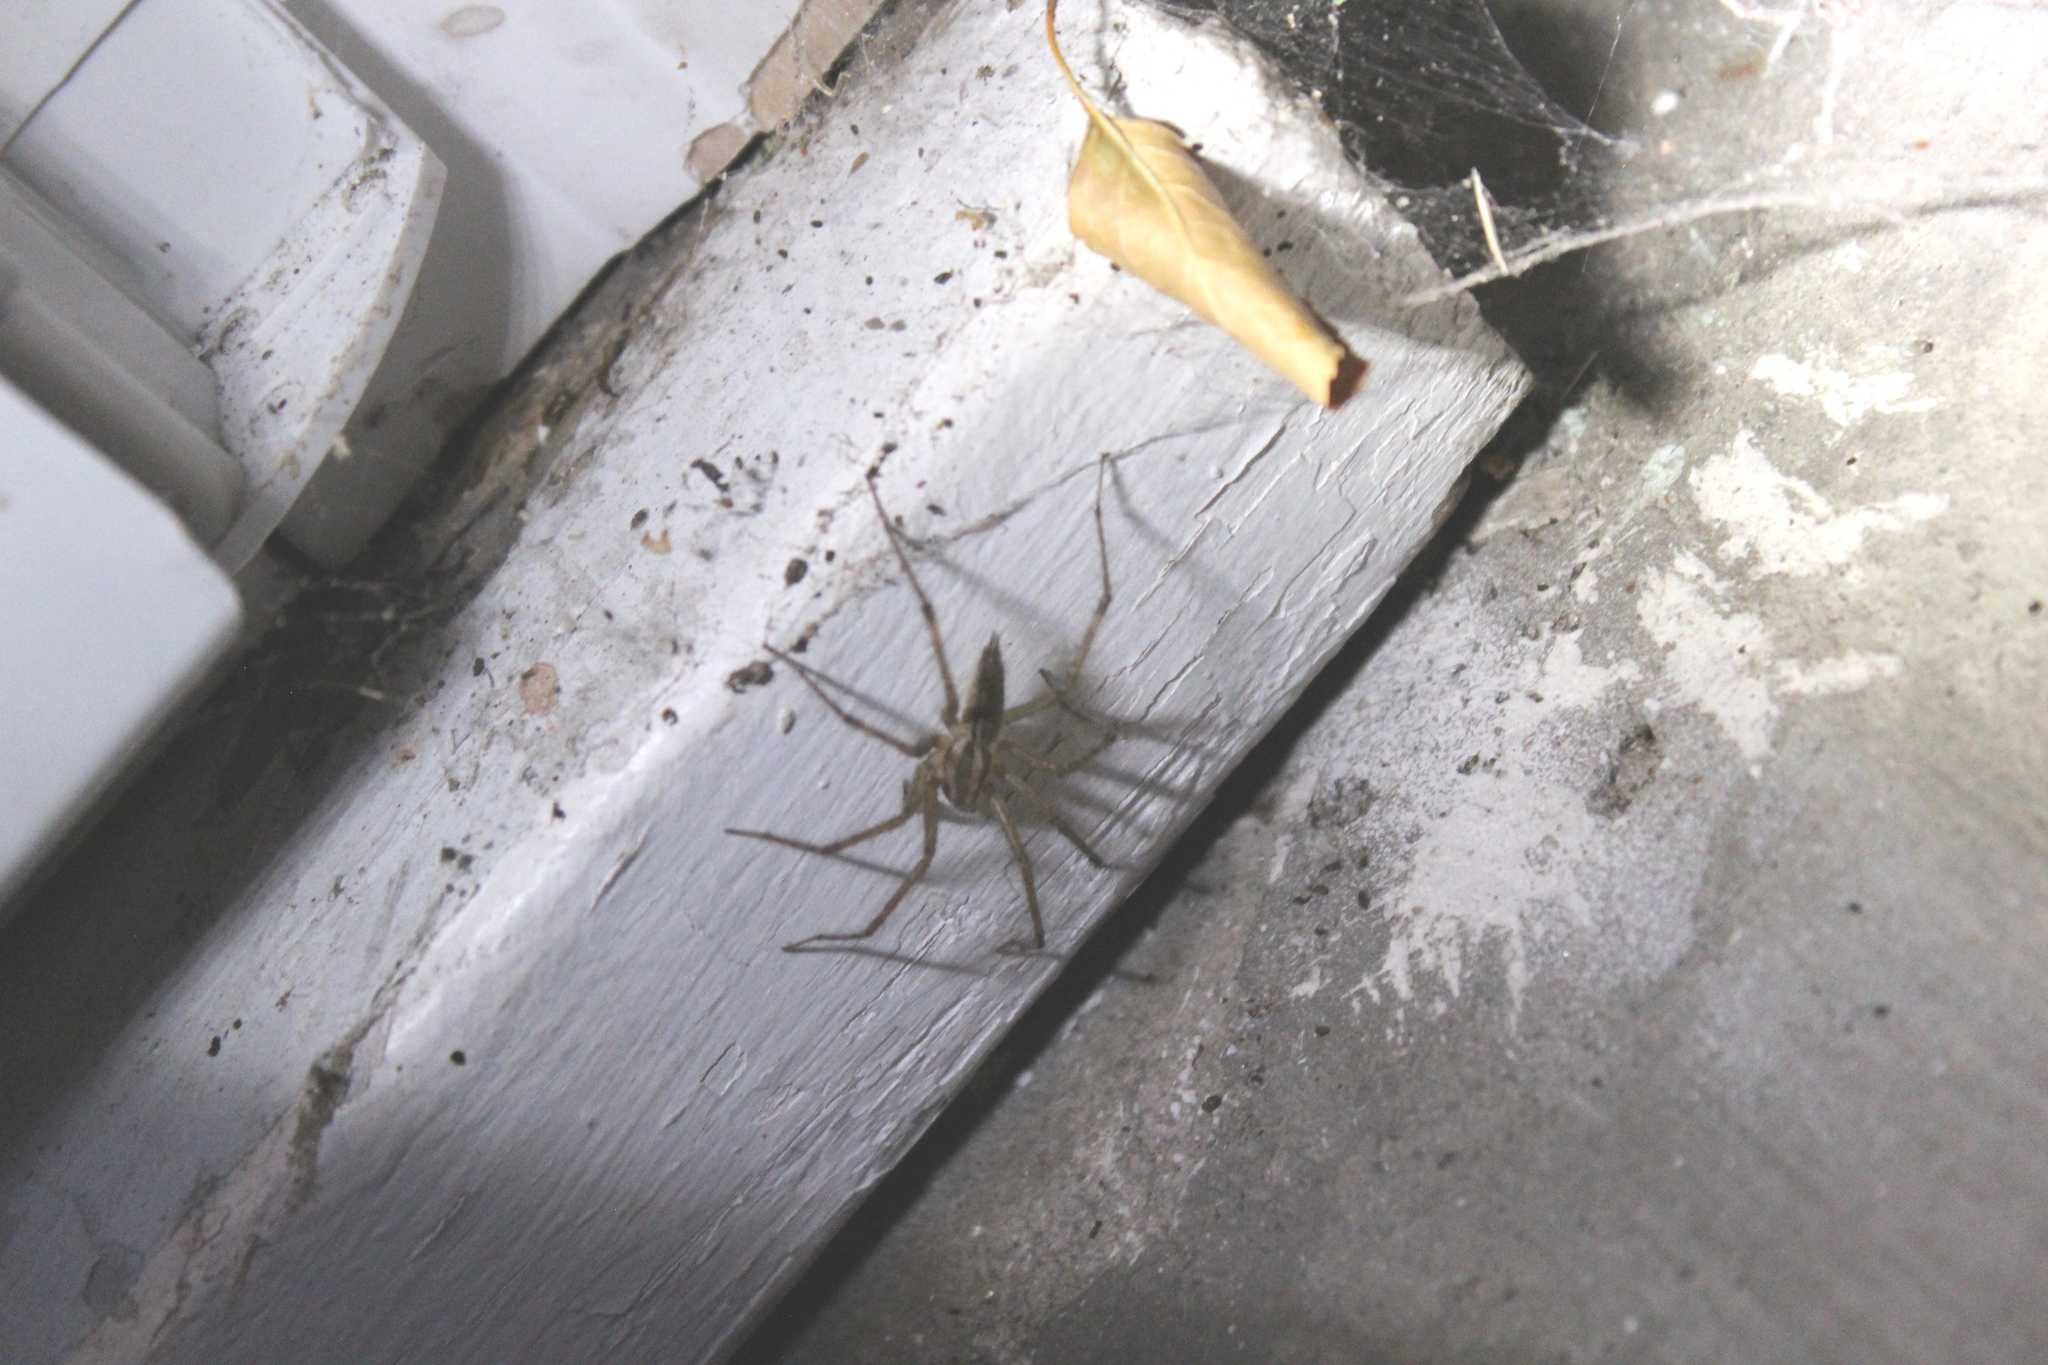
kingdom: Animalia
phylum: Arthropoda
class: Arachnida
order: Araneae
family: Agelenidae
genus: Agelenopsis
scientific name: Agelenopsis
